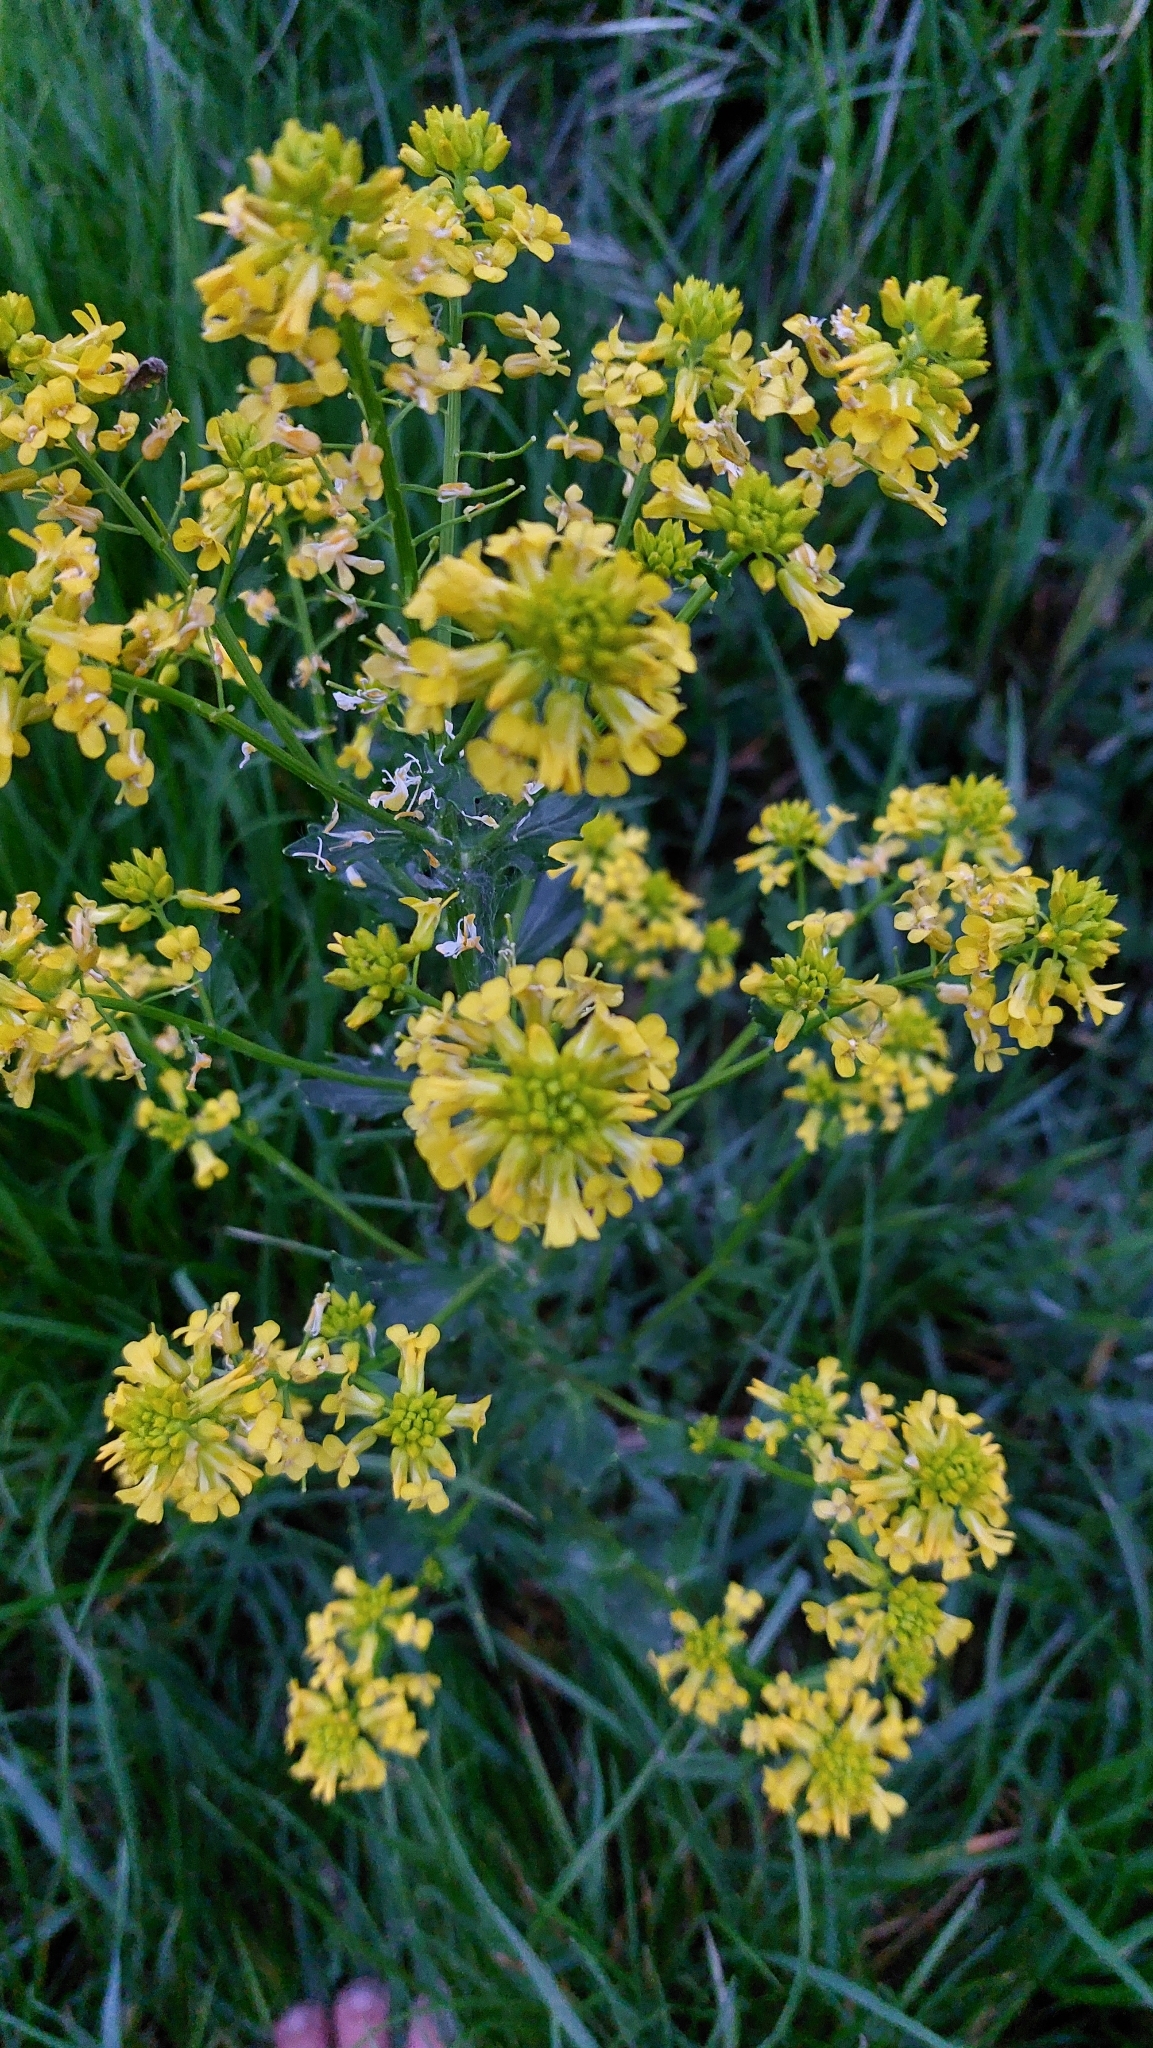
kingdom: Plantae
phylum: Tracheophyta
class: Magnoliopsida
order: Brassicales
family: Brassicaceae
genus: Barbarea
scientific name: Barbarea vulgaris
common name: Cressy-greens
